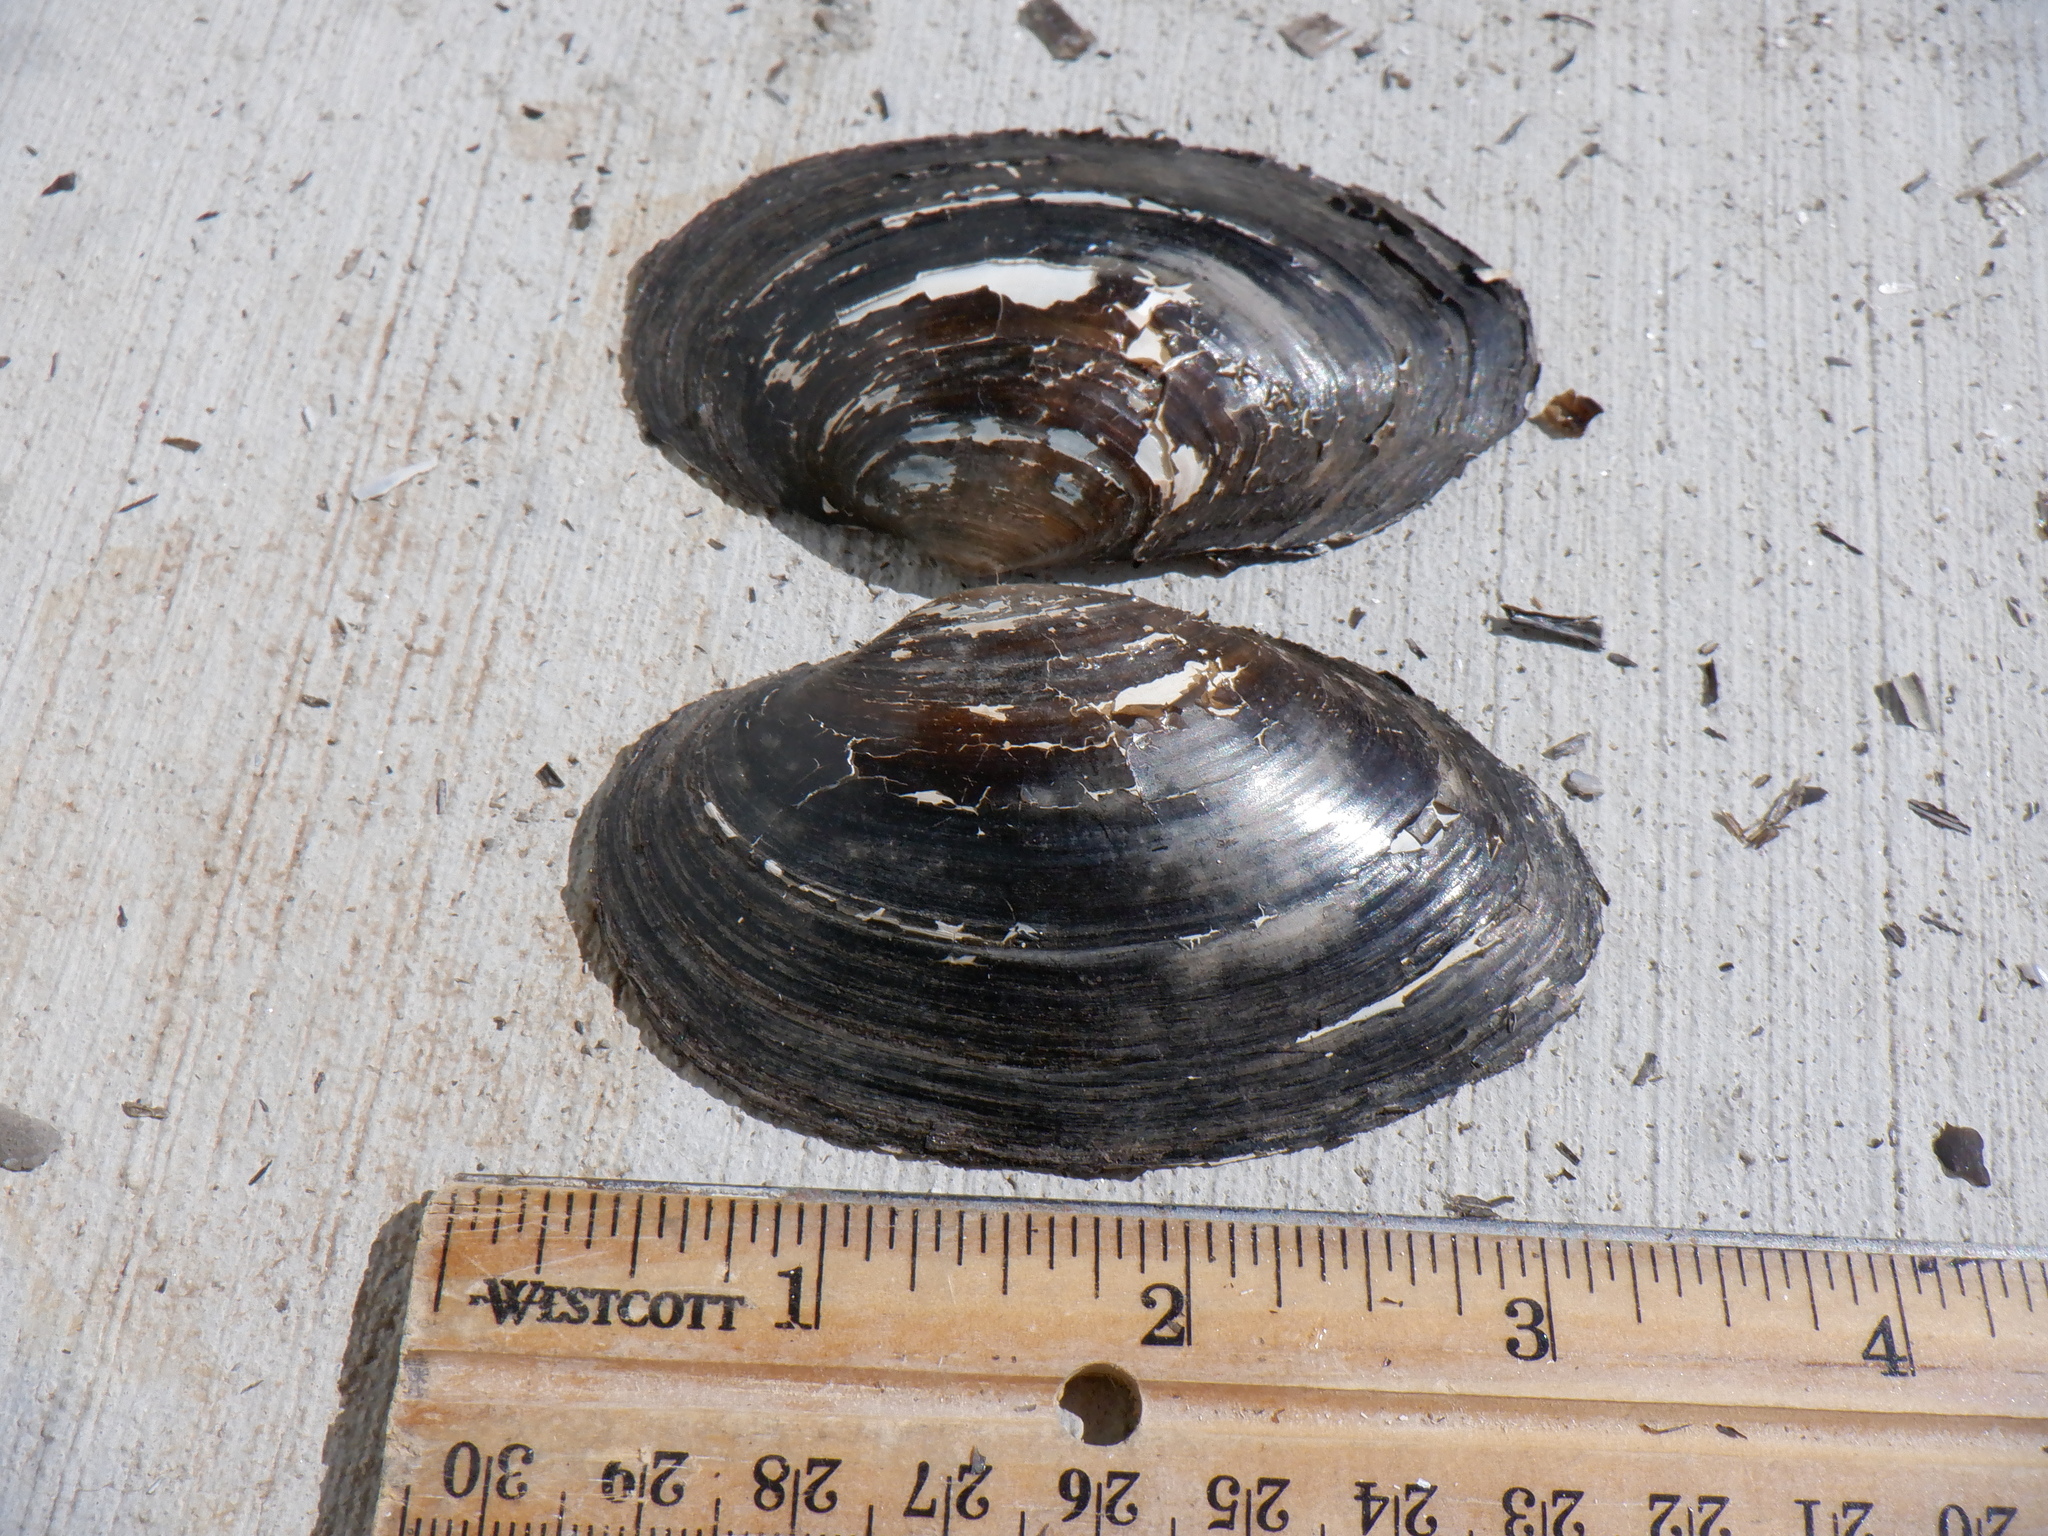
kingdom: Animalia
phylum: Mollusca
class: Bivalvia
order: Unionida
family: Unionidae
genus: Strophitus
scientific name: Strophitus undulatus
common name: Creeper
